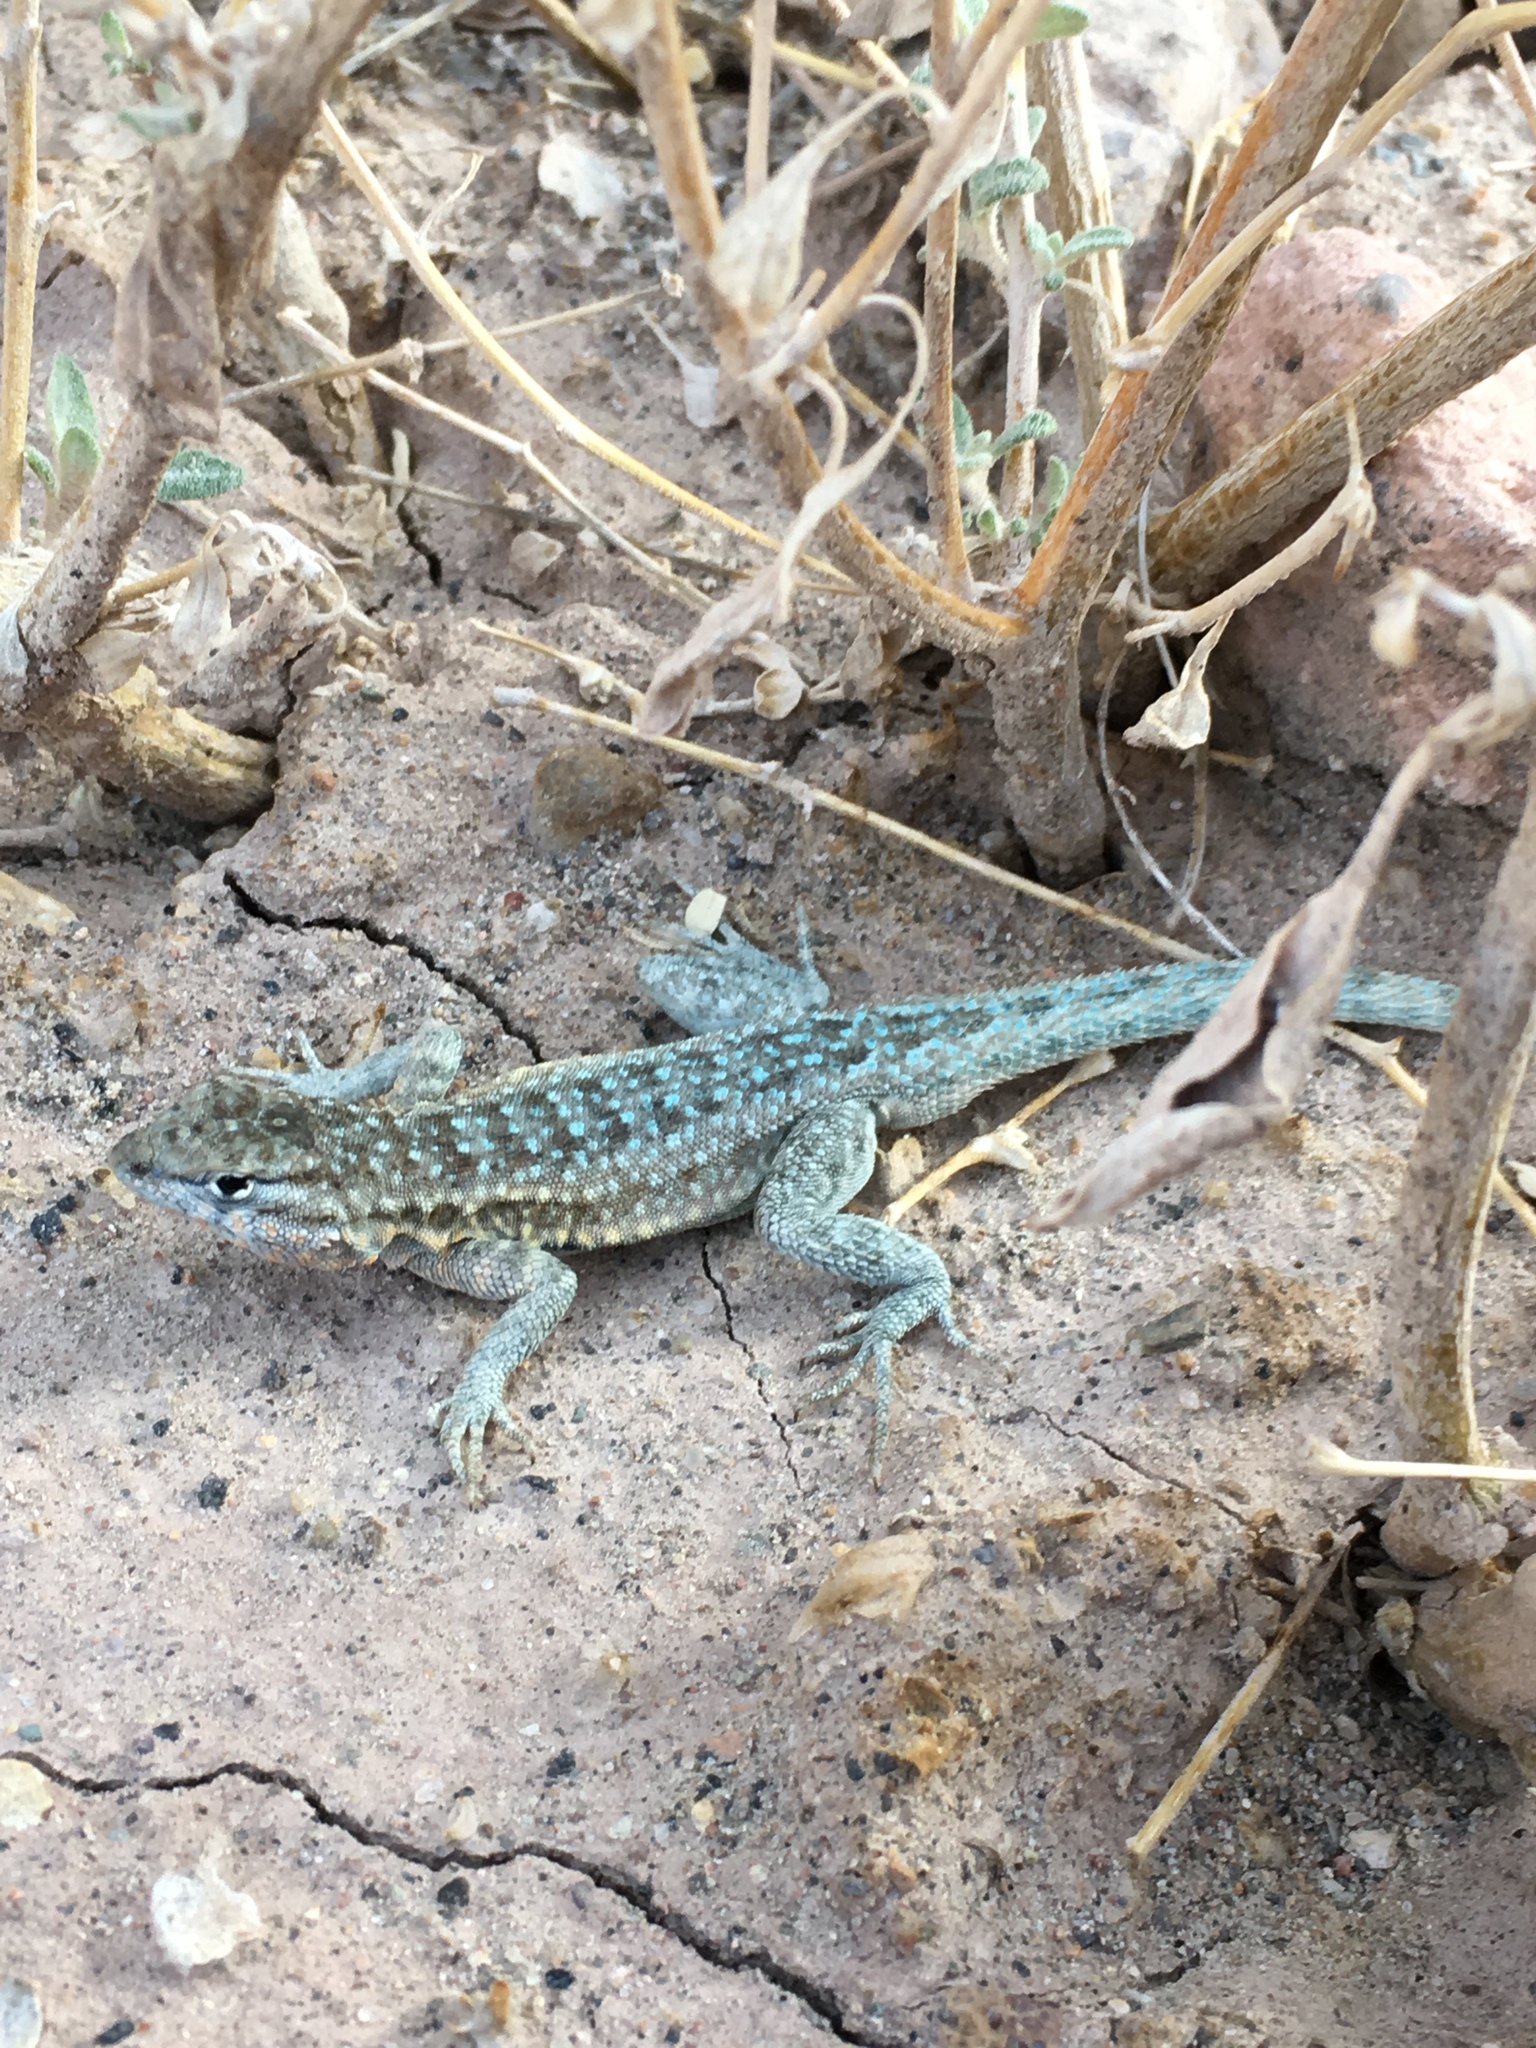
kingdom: Animalia
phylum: Chordata
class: Squamata
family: Phrynosomatidae
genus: Uta
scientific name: Uta stansburiana
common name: Side-blotched lizard
